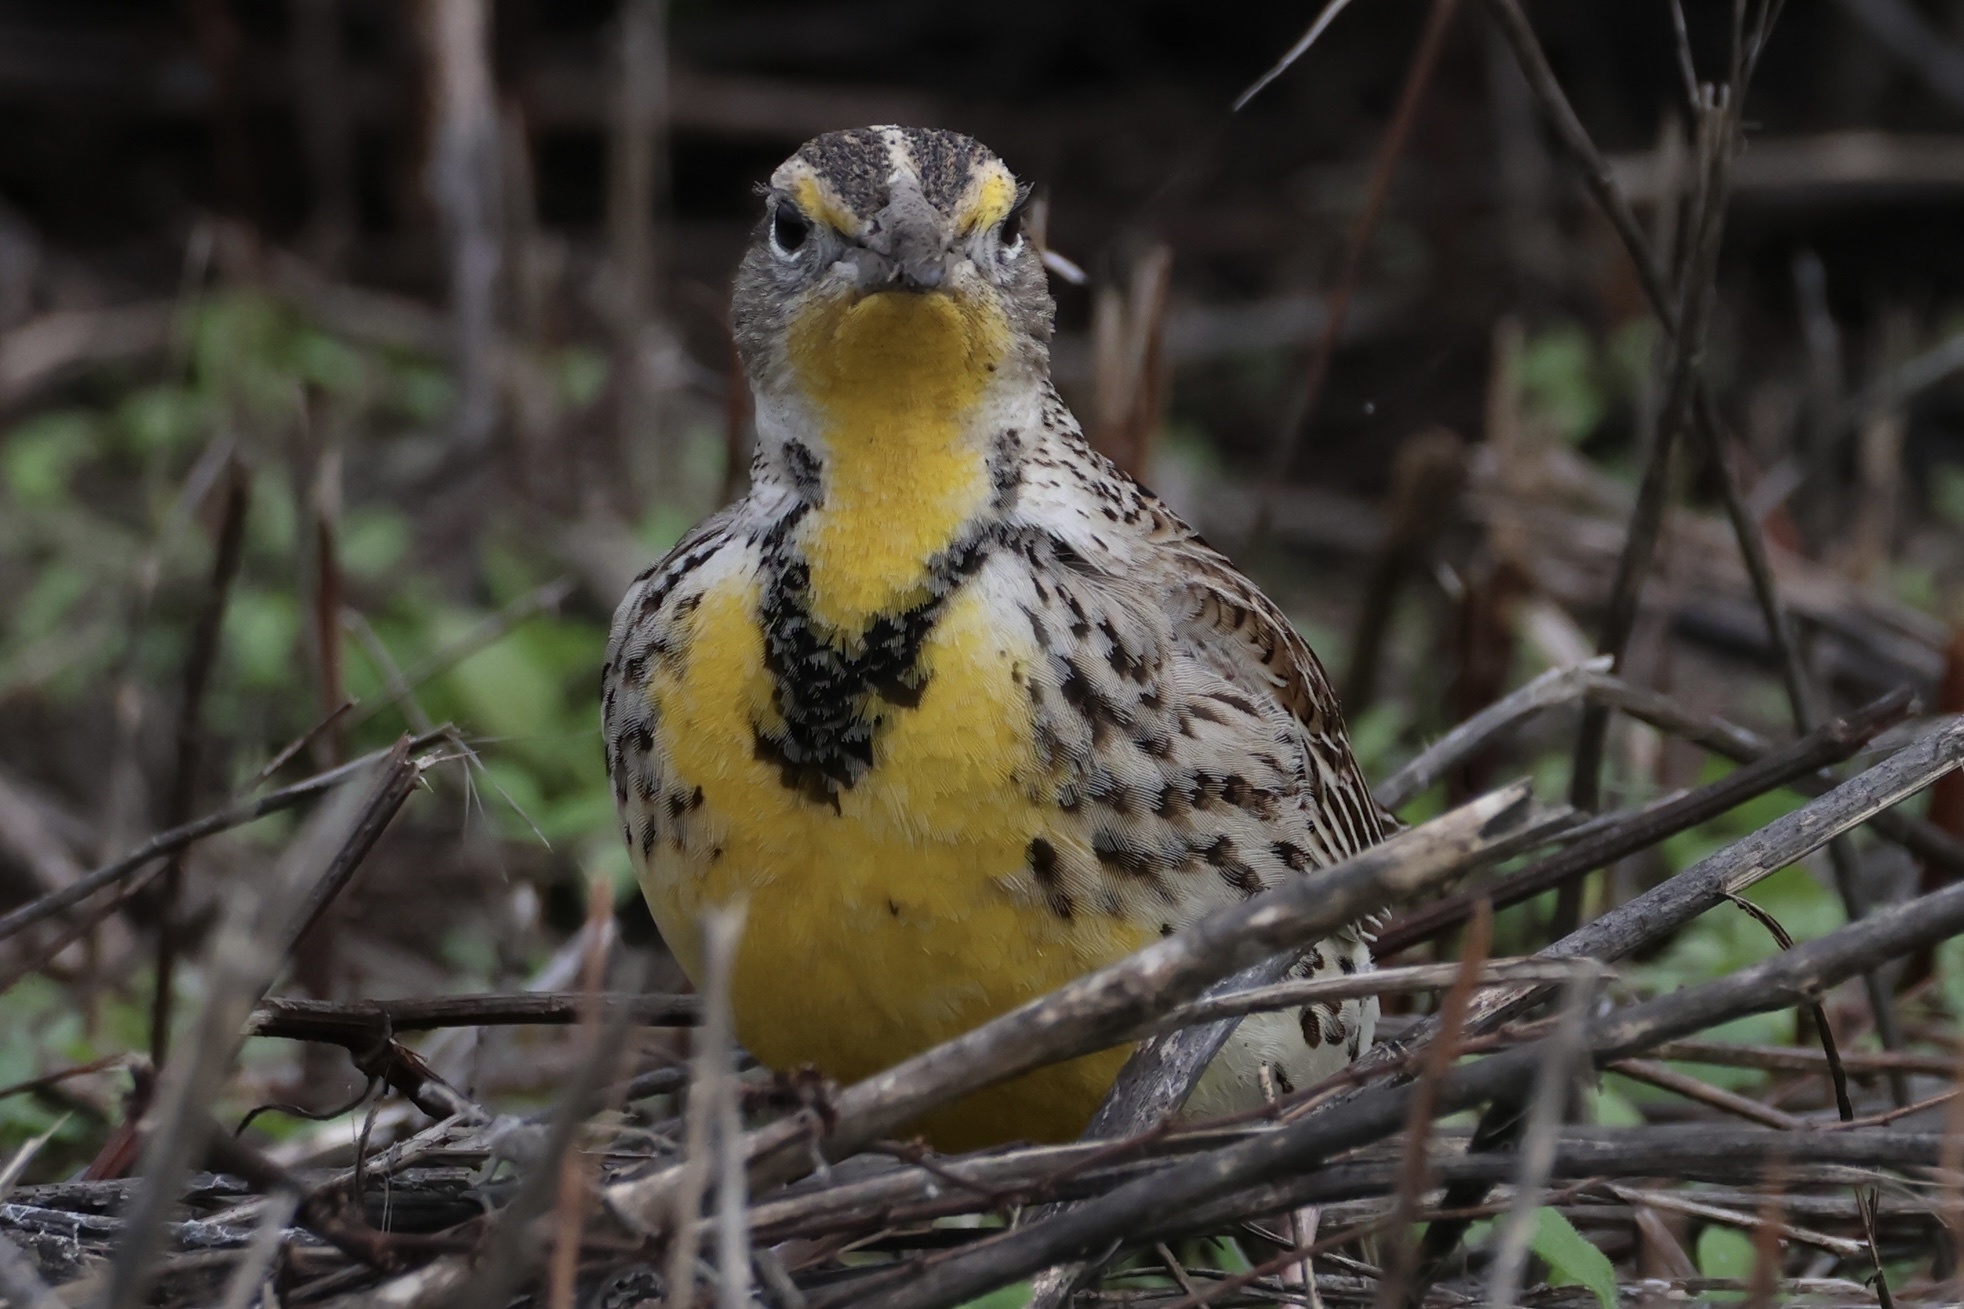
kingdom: Animalia
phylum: Chordata
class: Aves
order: Passeriformes
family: Icteridae
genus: Sturnella
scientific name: Sturnella neglecta
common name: Western meadowlark
